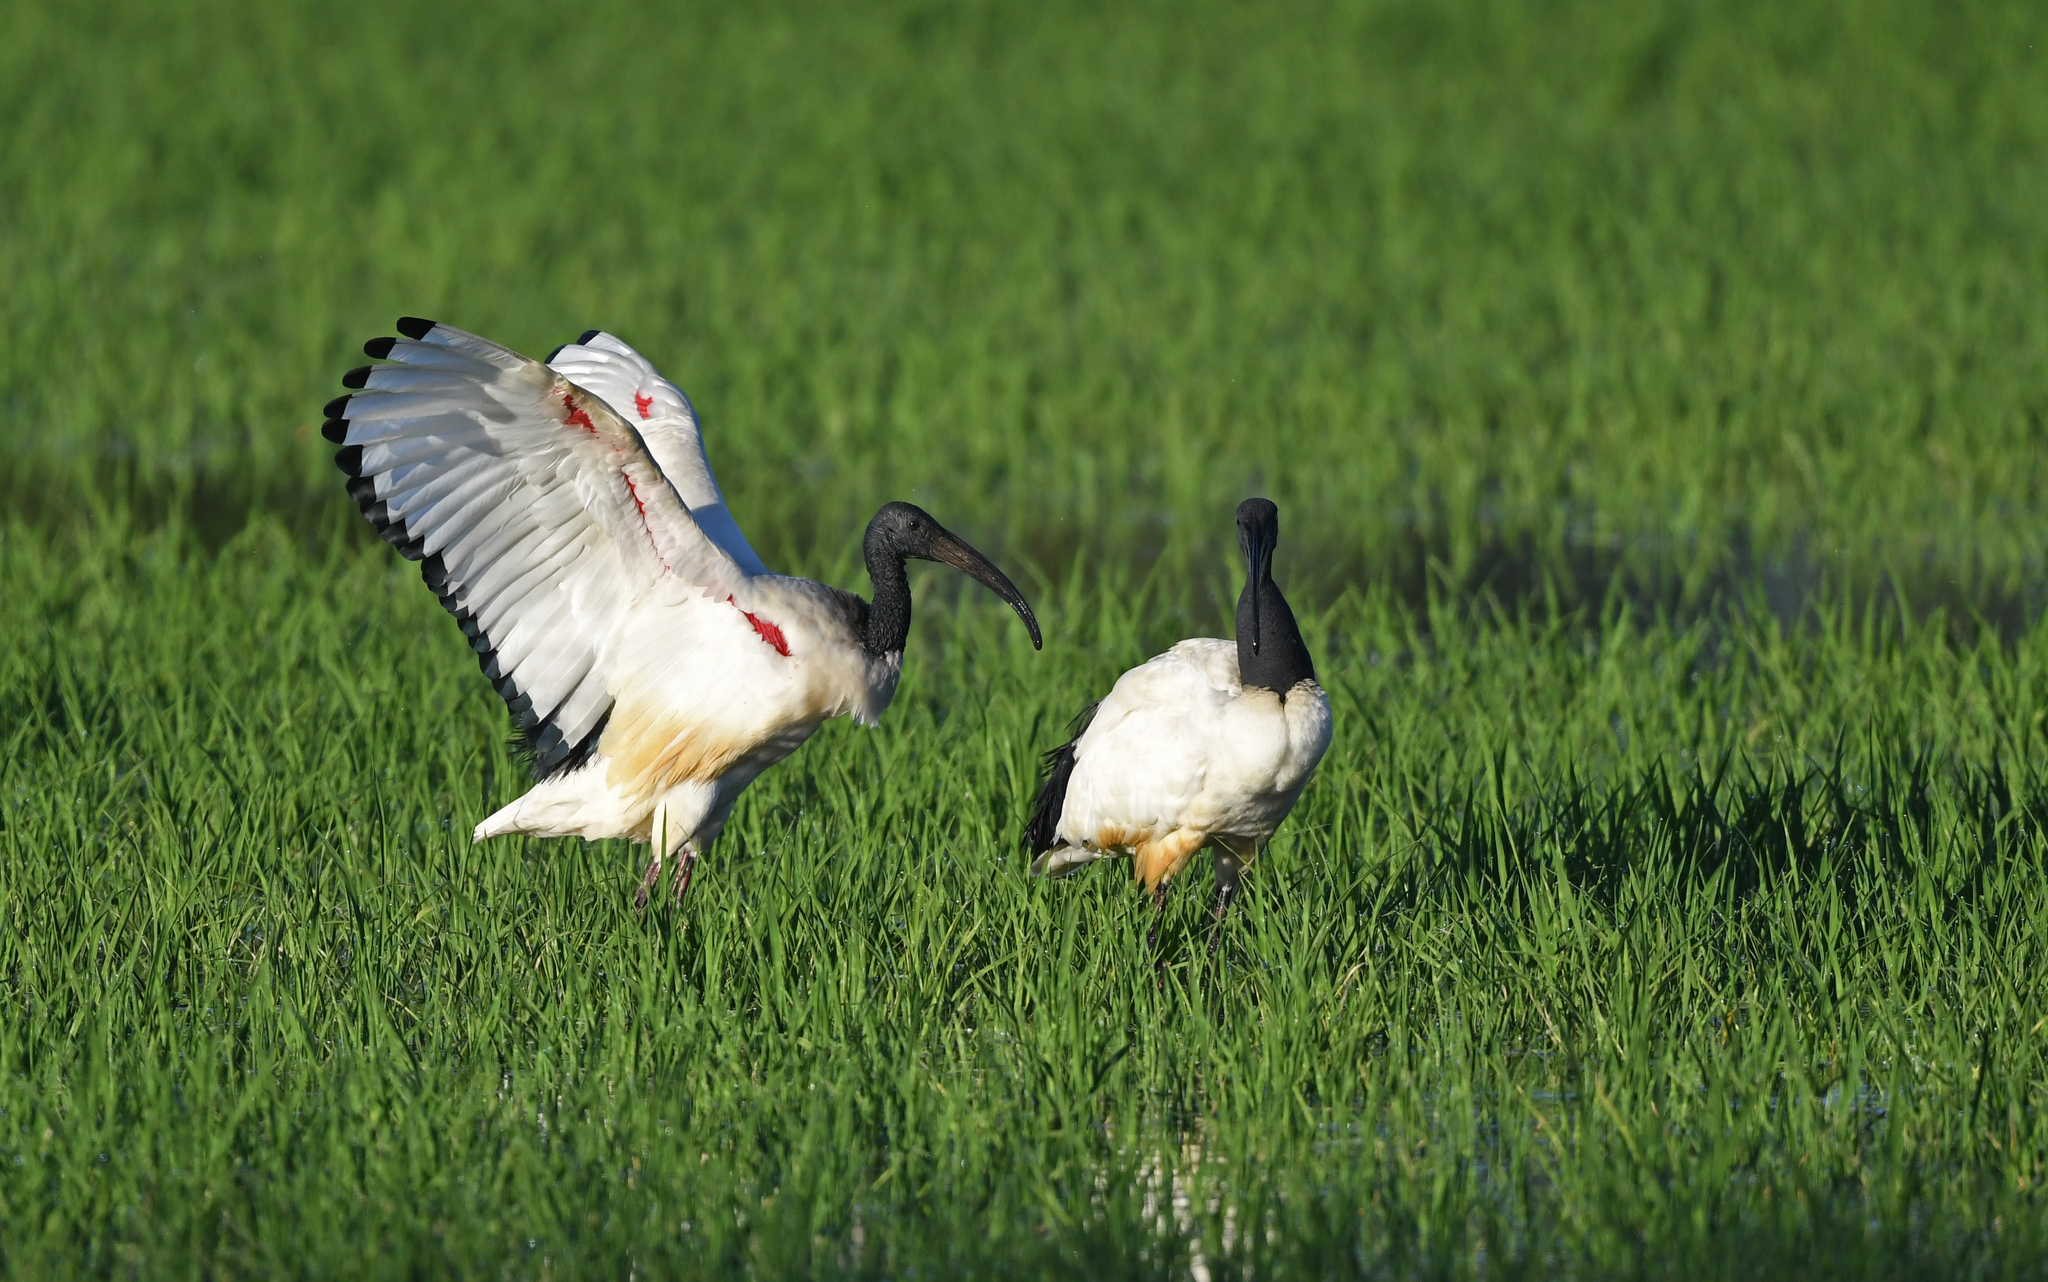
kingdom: Animalia
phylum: Chordata
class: Aves
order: Pelecaniformes
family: Threskiornithidae
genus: Threskiornis
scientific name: Threskiornis aethiopicus
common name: Sacred ibis
